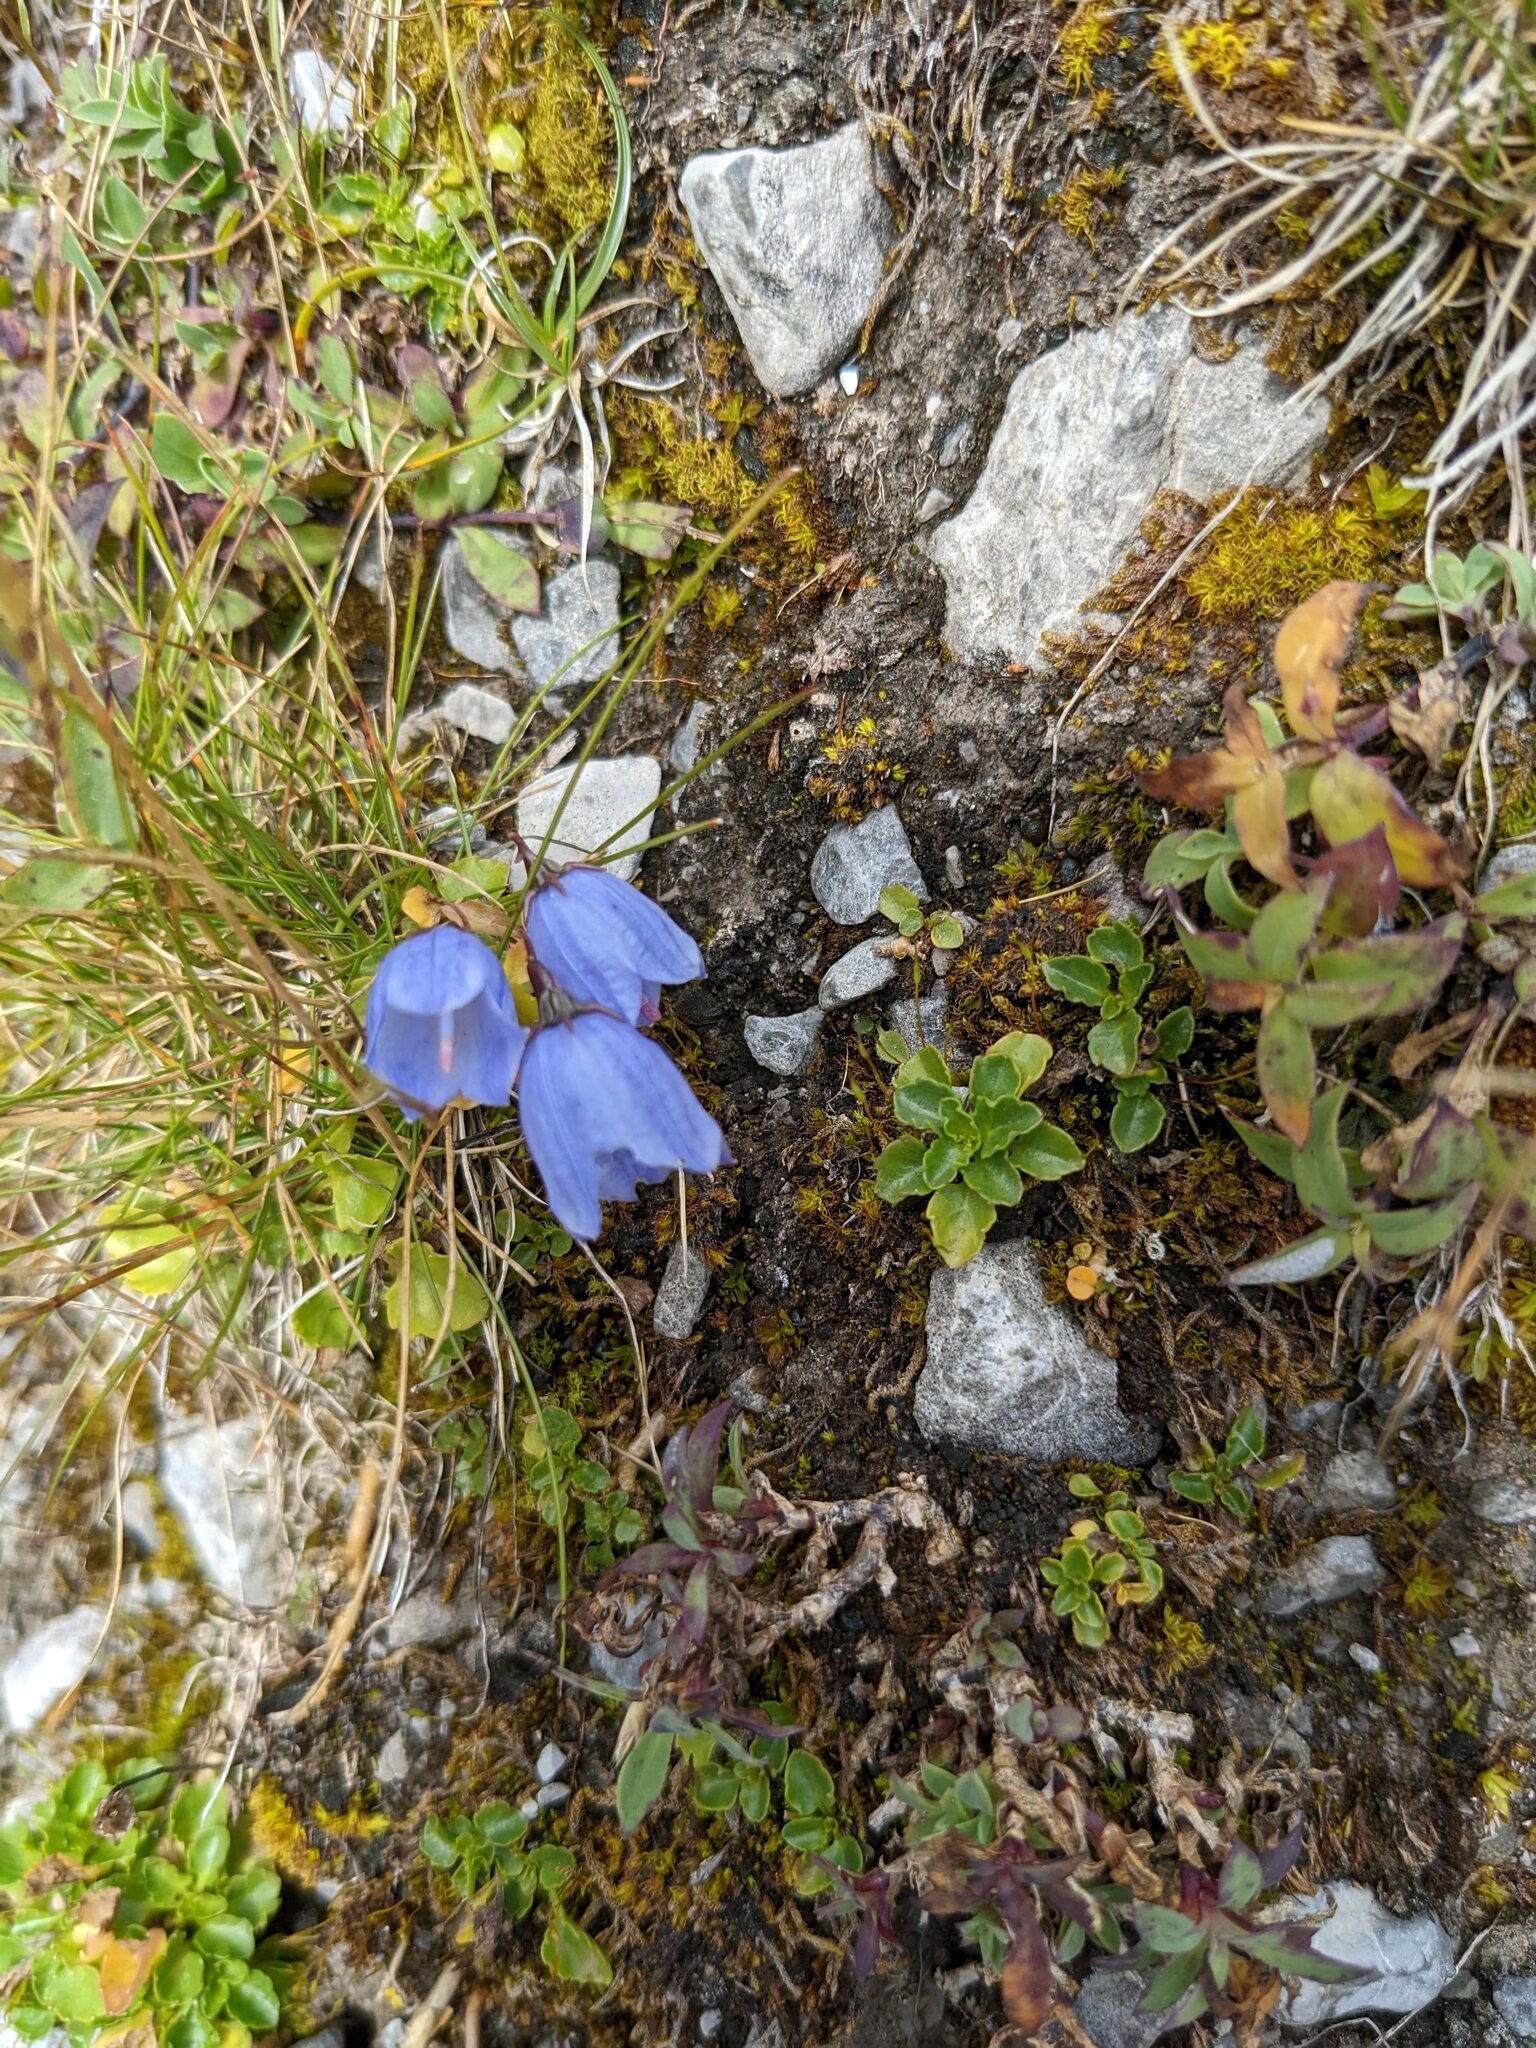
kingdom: Plantae
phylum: Tracheophyta
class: Magnoliopsida
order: Asterales
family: Campanulaceae
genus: Campanula
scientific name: Campanula cochleariifolia
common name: Fairies'-thimbles
